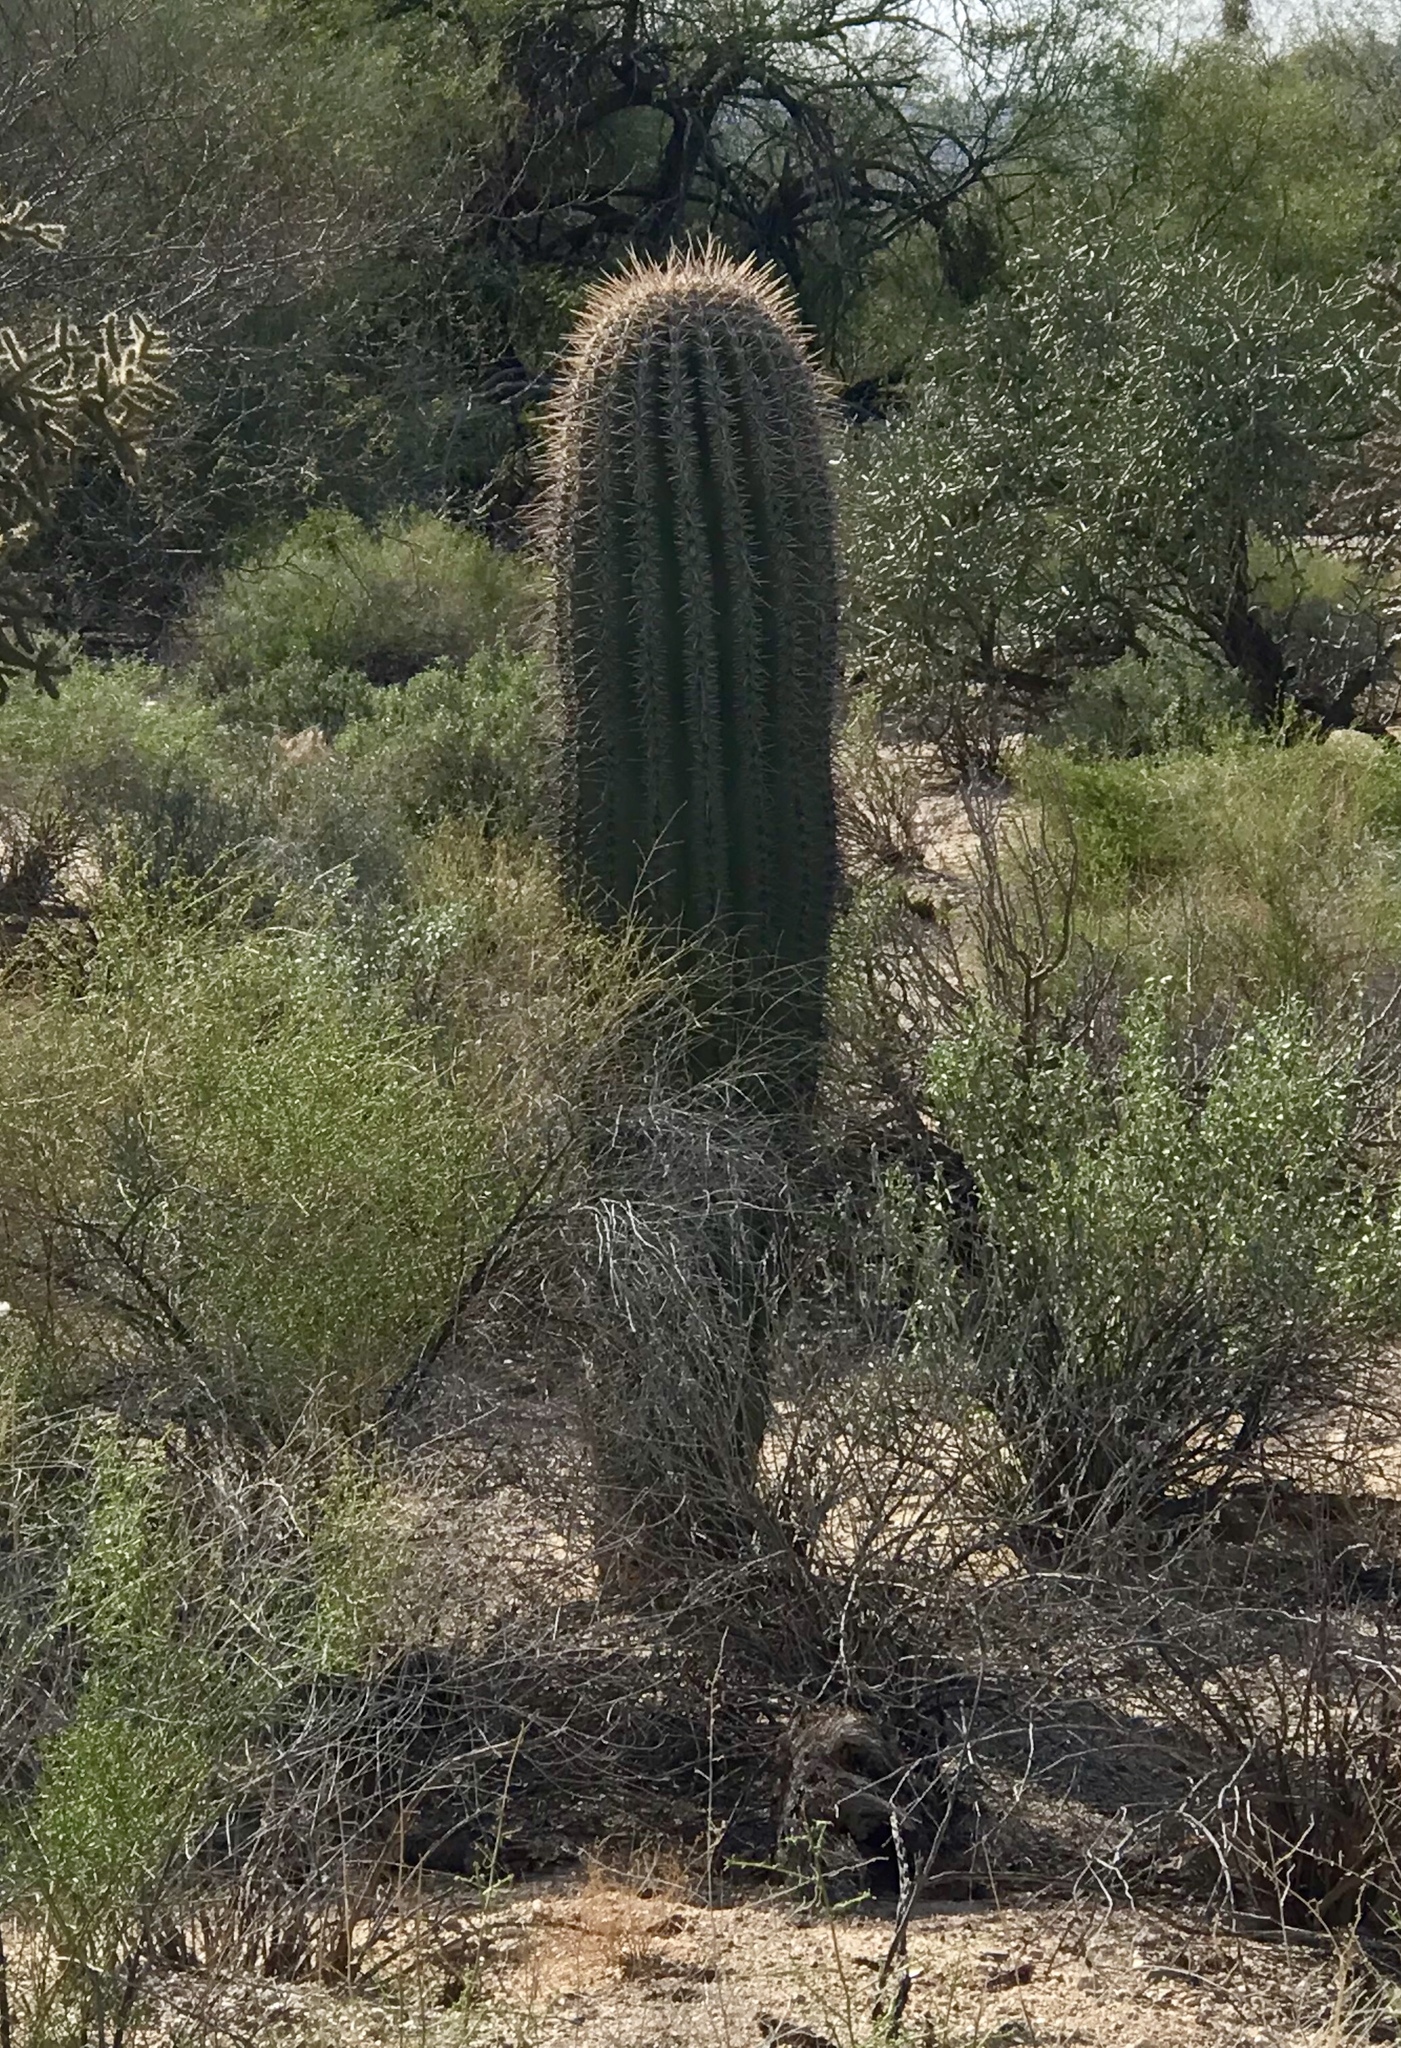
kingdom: Plantae
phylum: Tracheophyta
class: Magnoliopsida
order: Caryophyllales
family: Cactaceae
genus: Carnegiea
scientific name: Carnegiea gigantea
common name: Saguaro
